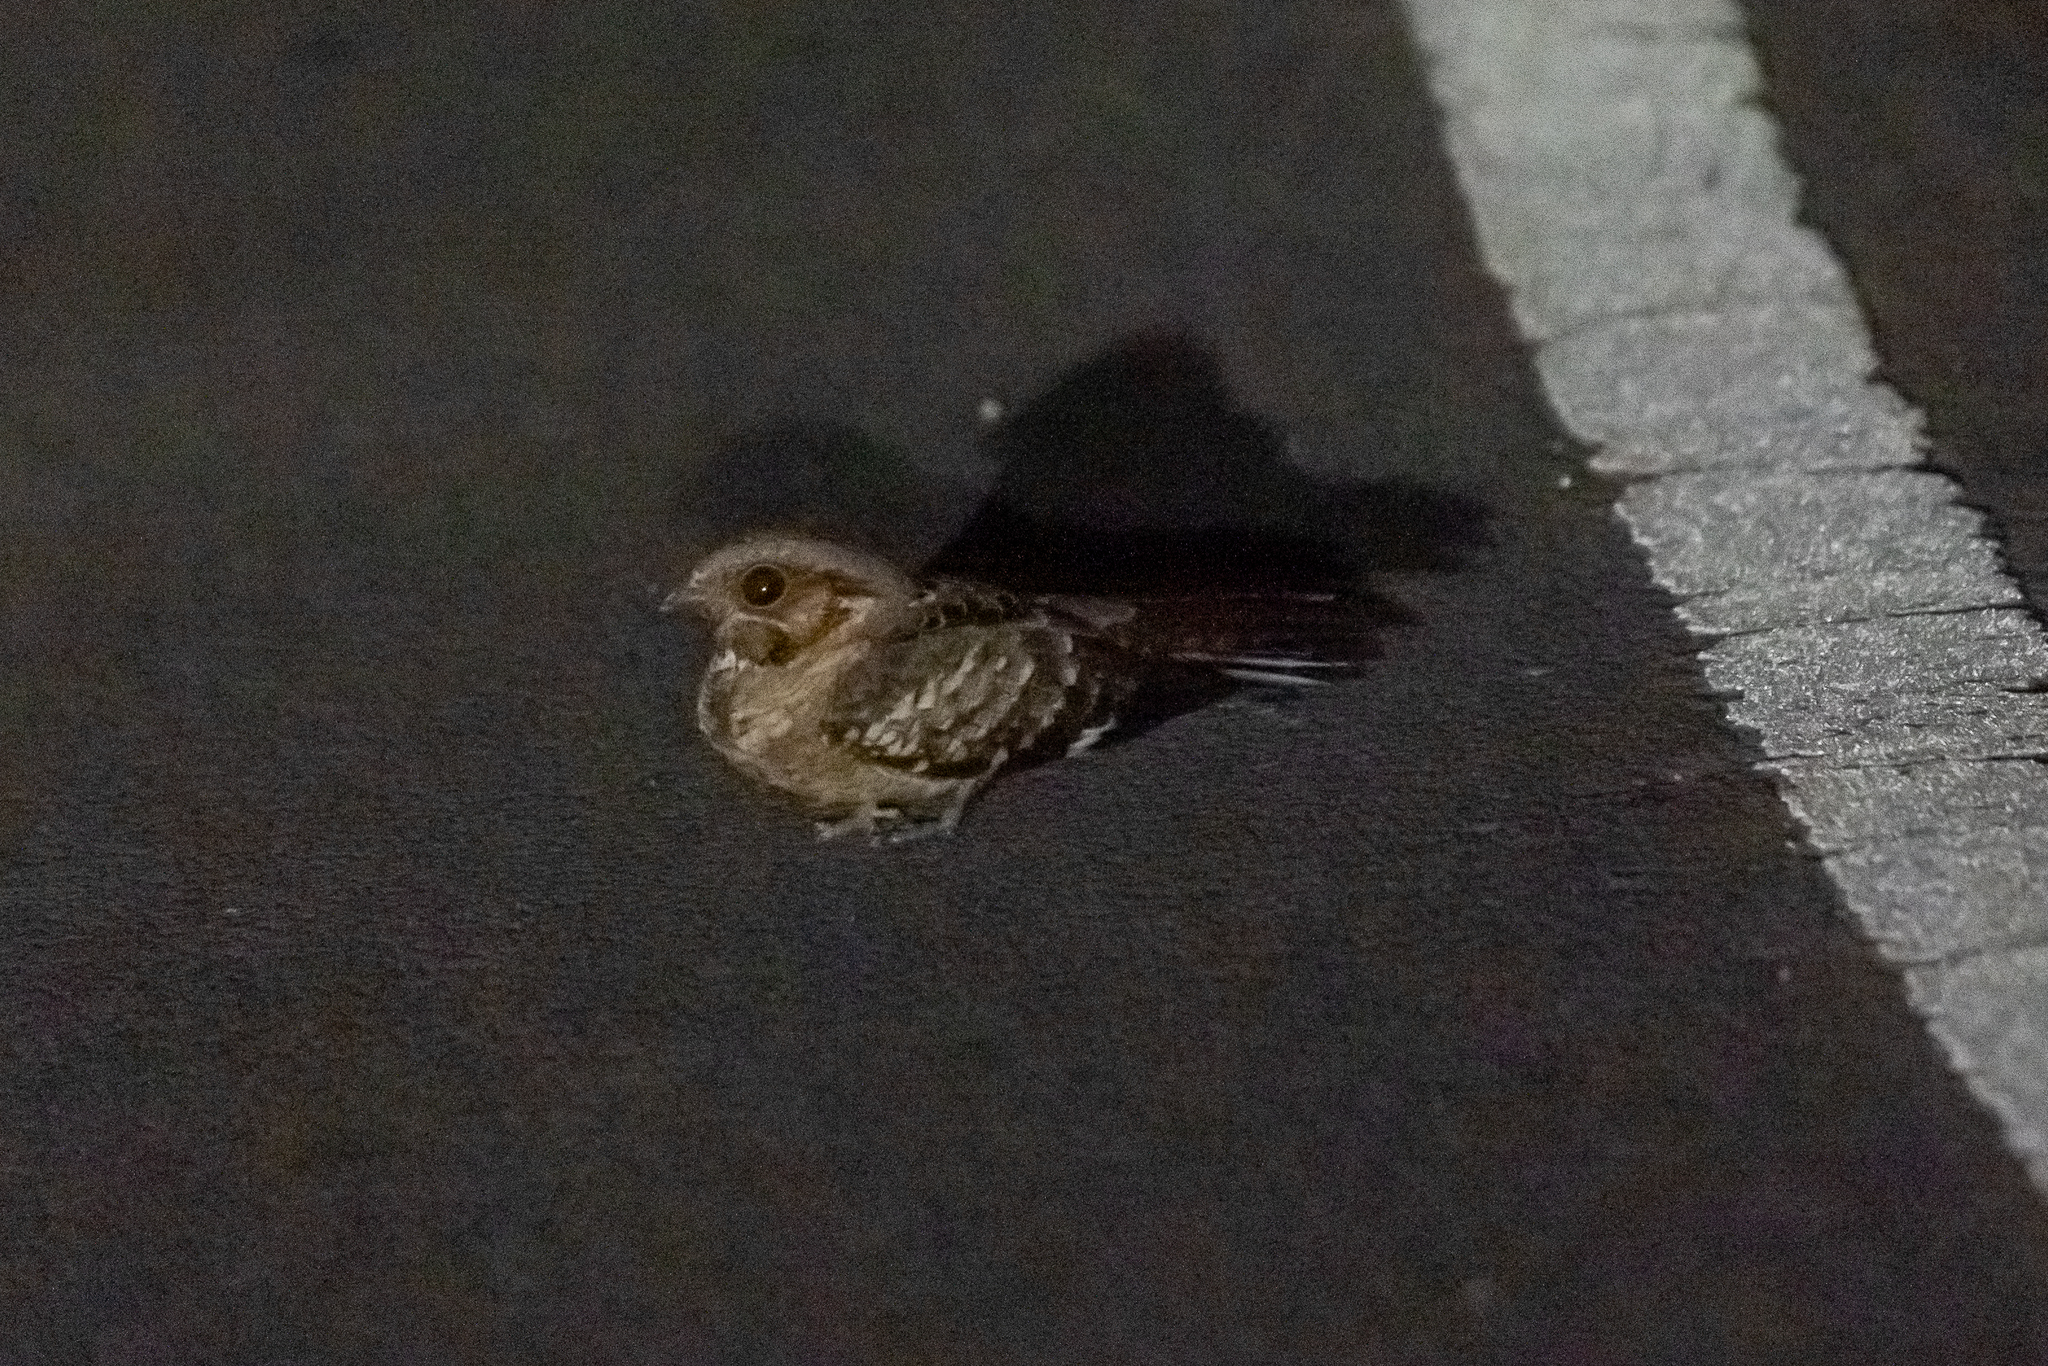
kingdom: Animalia
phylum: Chordata
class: Aves
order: Caprimulgiformes
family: Caprimulgidae
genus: Nyctidromus
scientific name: Nyctidromus albicollis
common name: Pauraque
